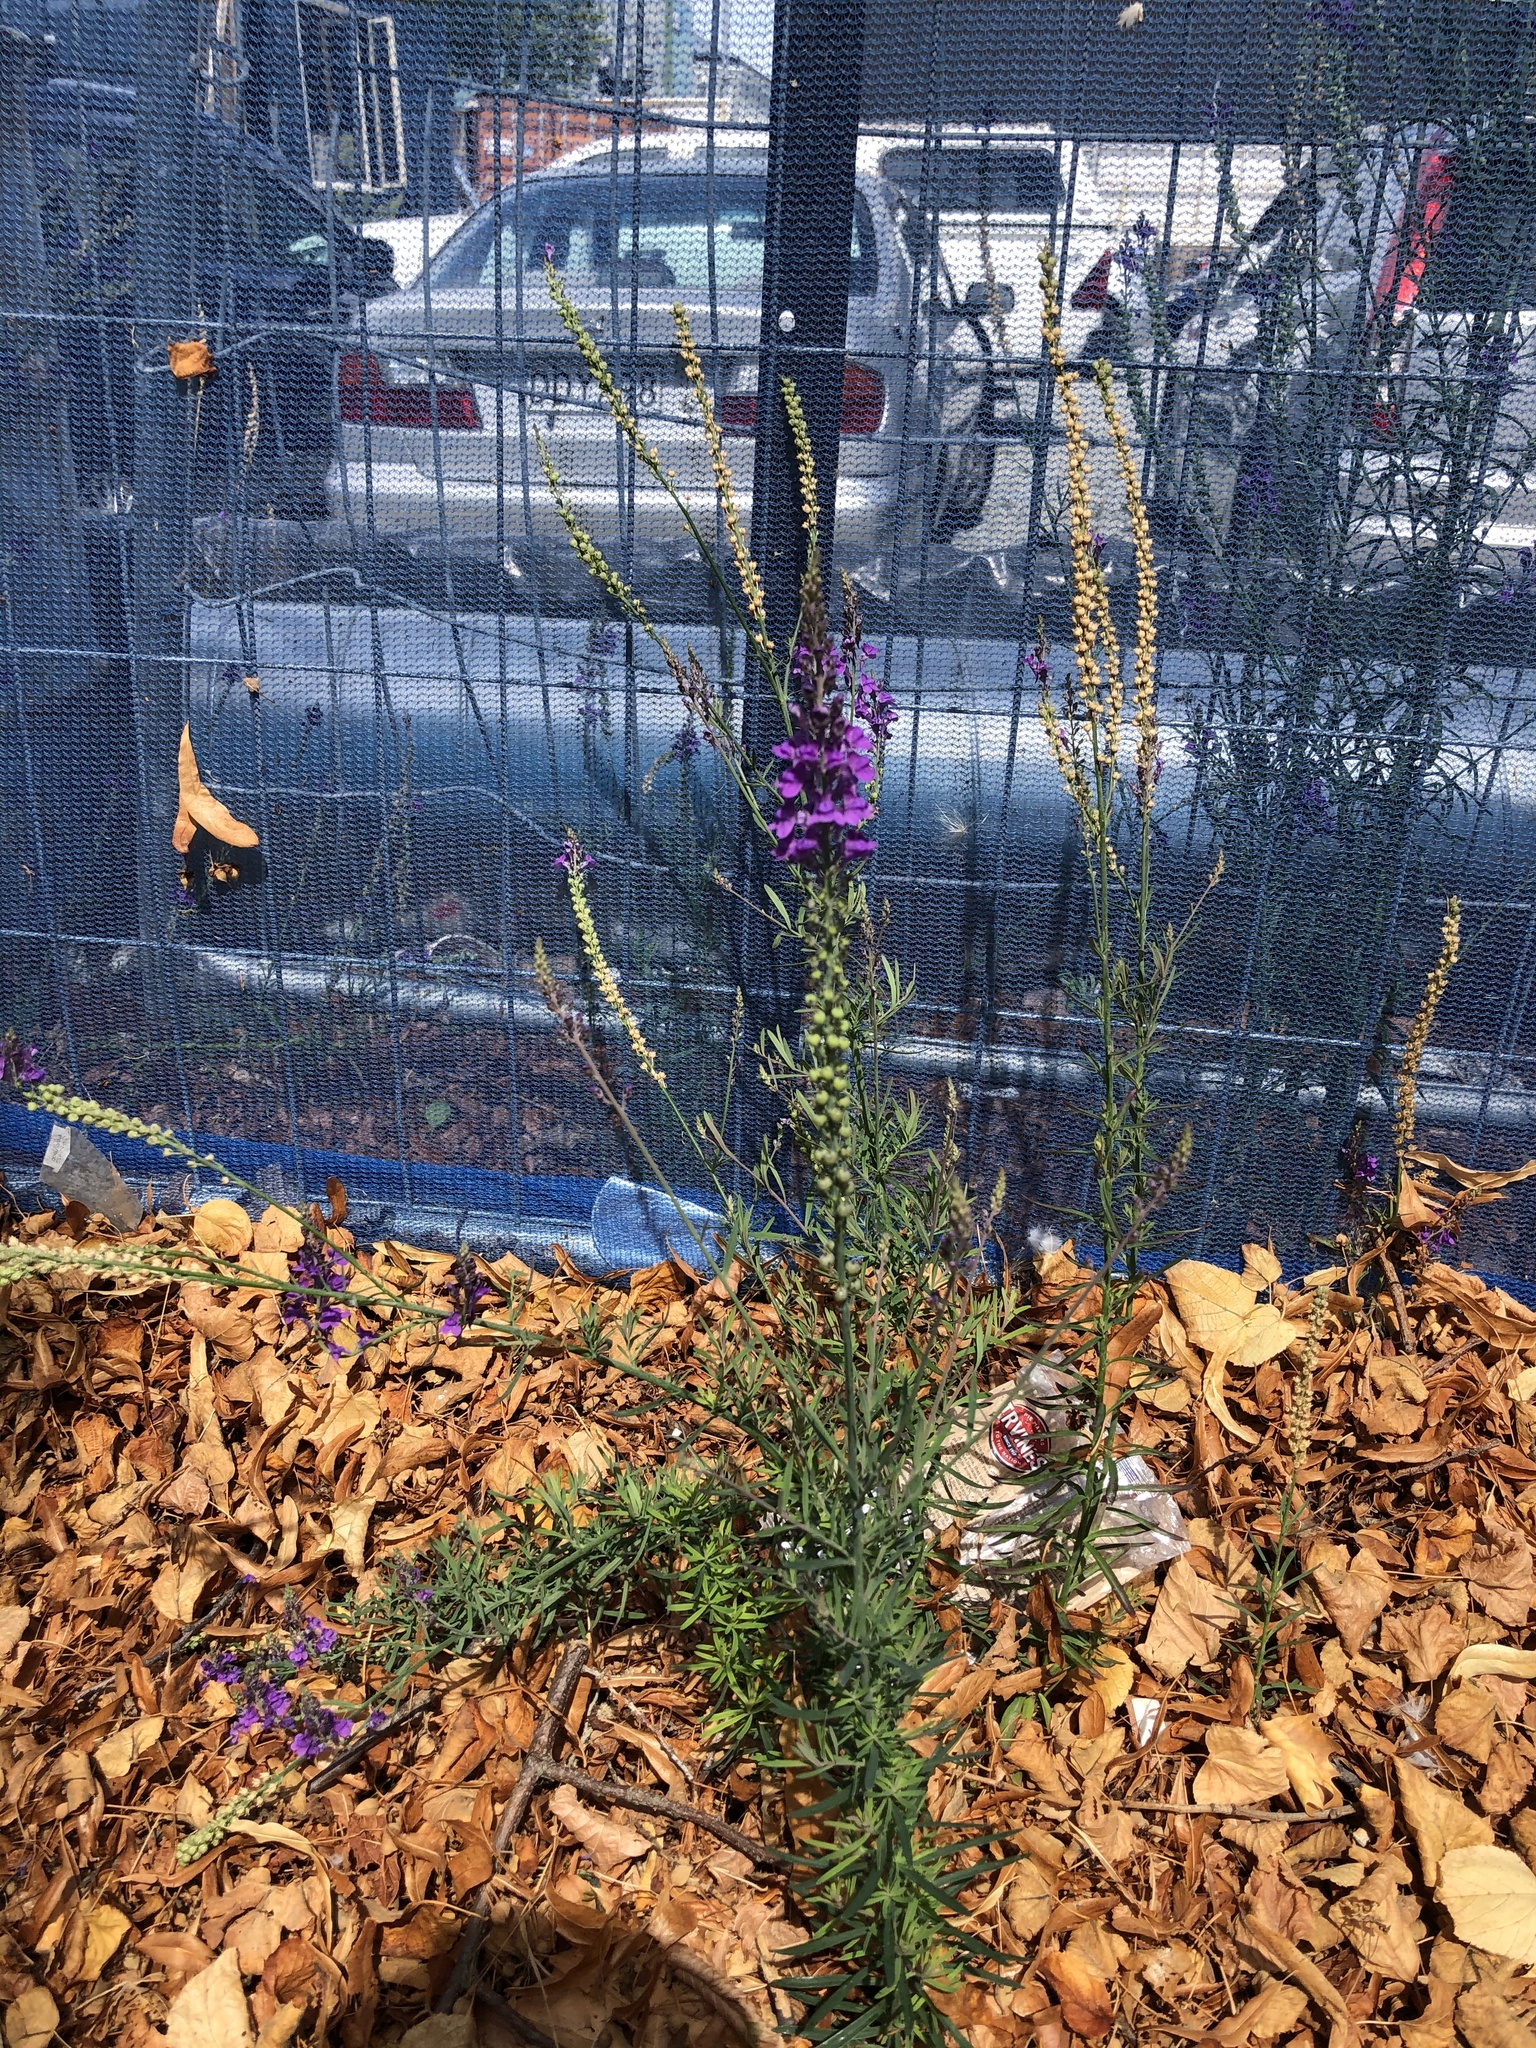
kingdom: Plantae
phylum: Tracheophyta
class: Magnoliopsida
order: Lamiales
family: Plantaginaceae
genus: Linaria
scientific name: Linaria purpurea
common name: Purple toadflax
